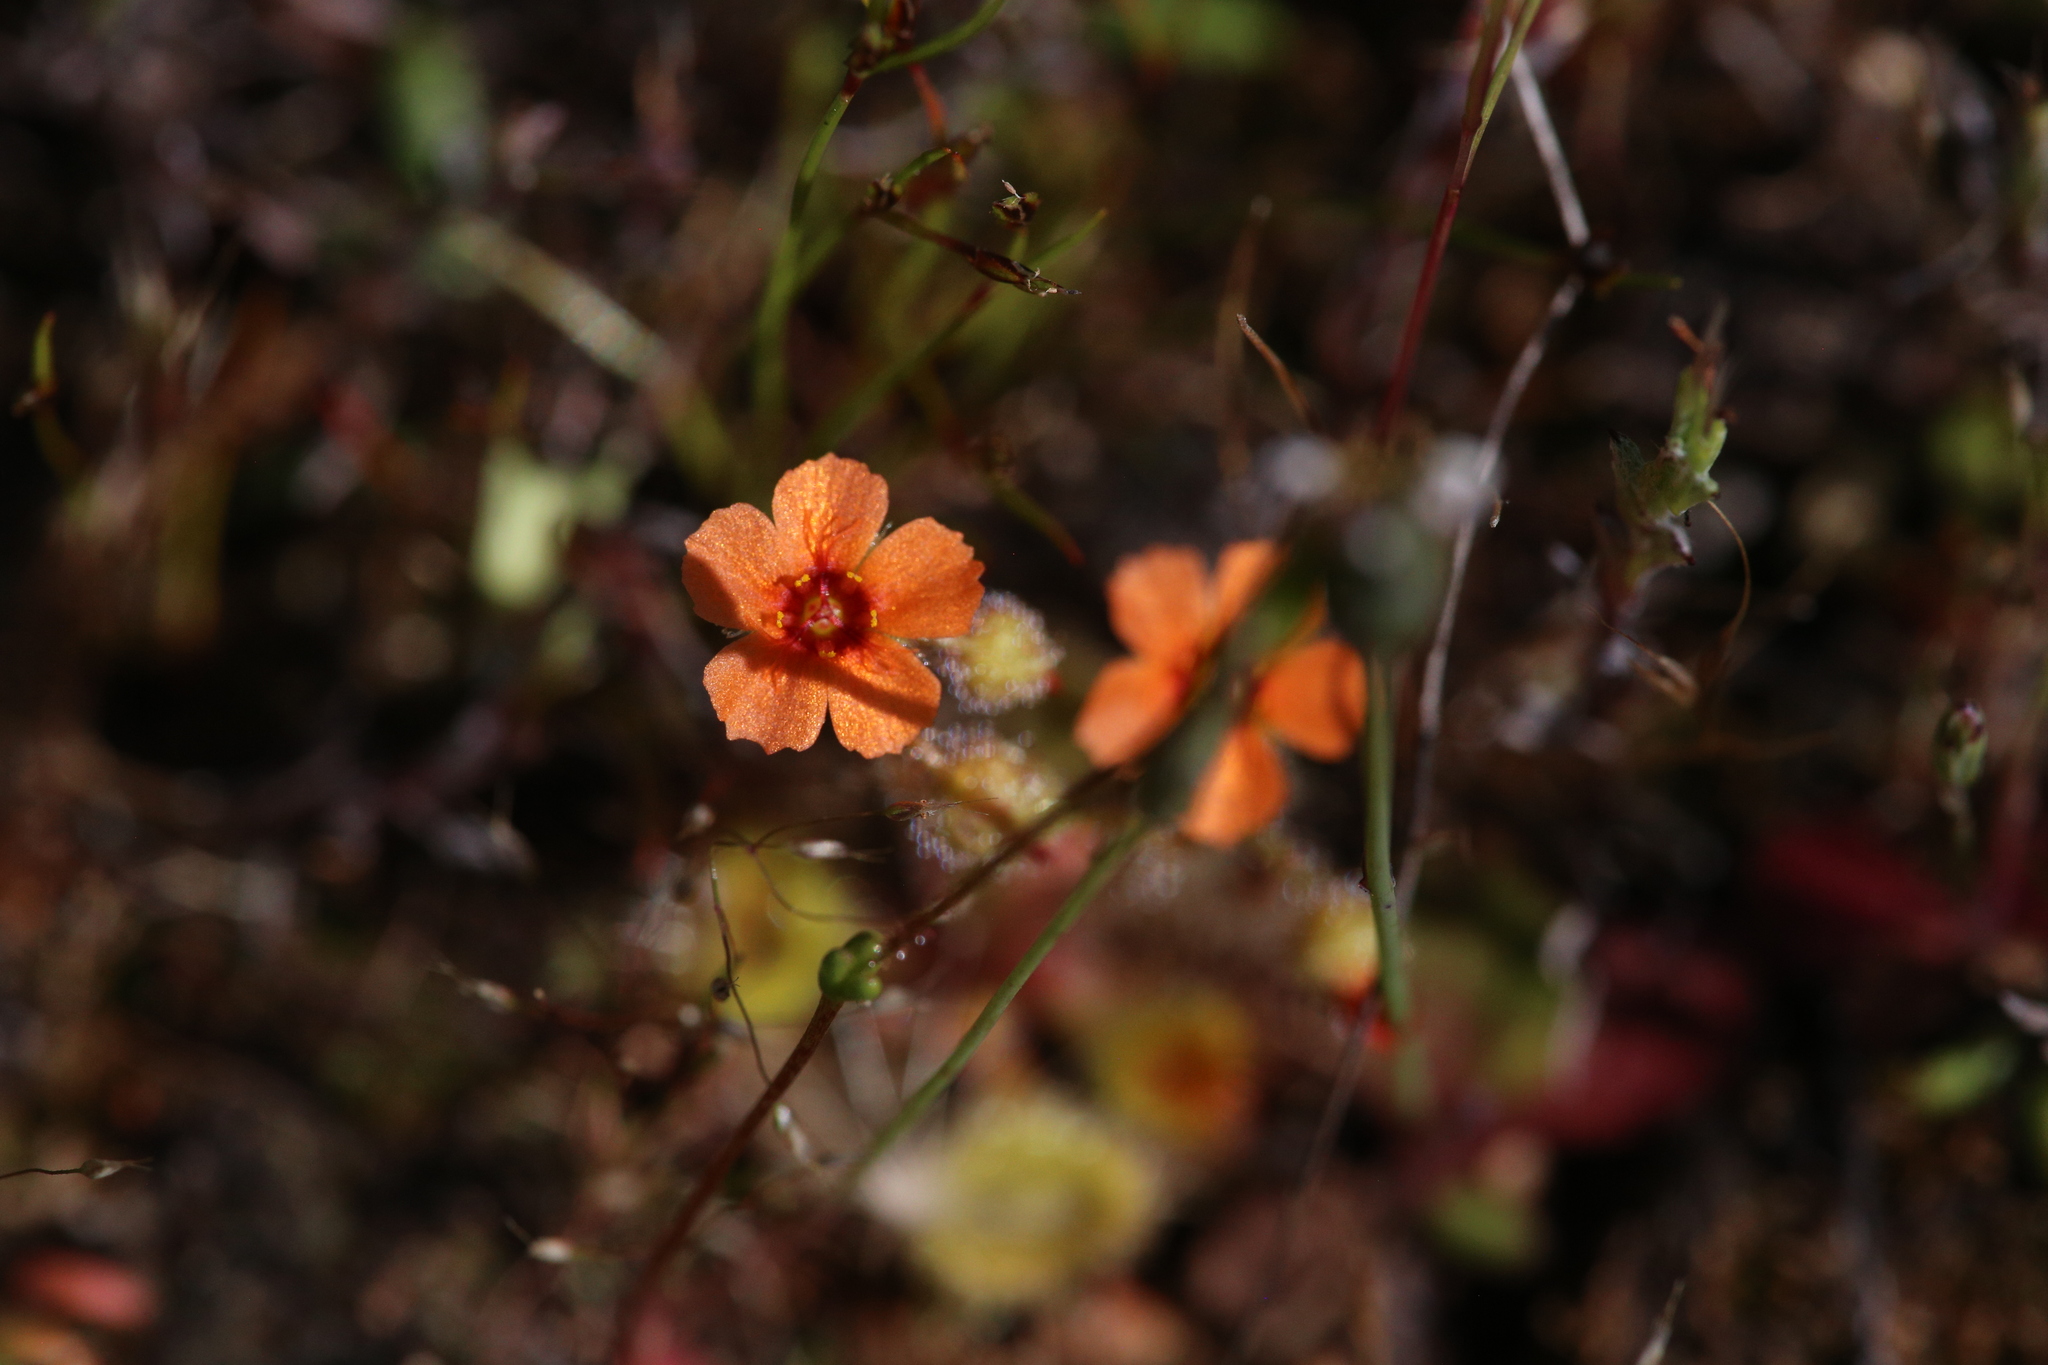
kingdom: Plantae
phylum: Tracheophyta
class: Magnoliopsida
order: Caryophyllales
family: Droseraceae
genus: Drosera
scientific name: Drosera glanduligera
